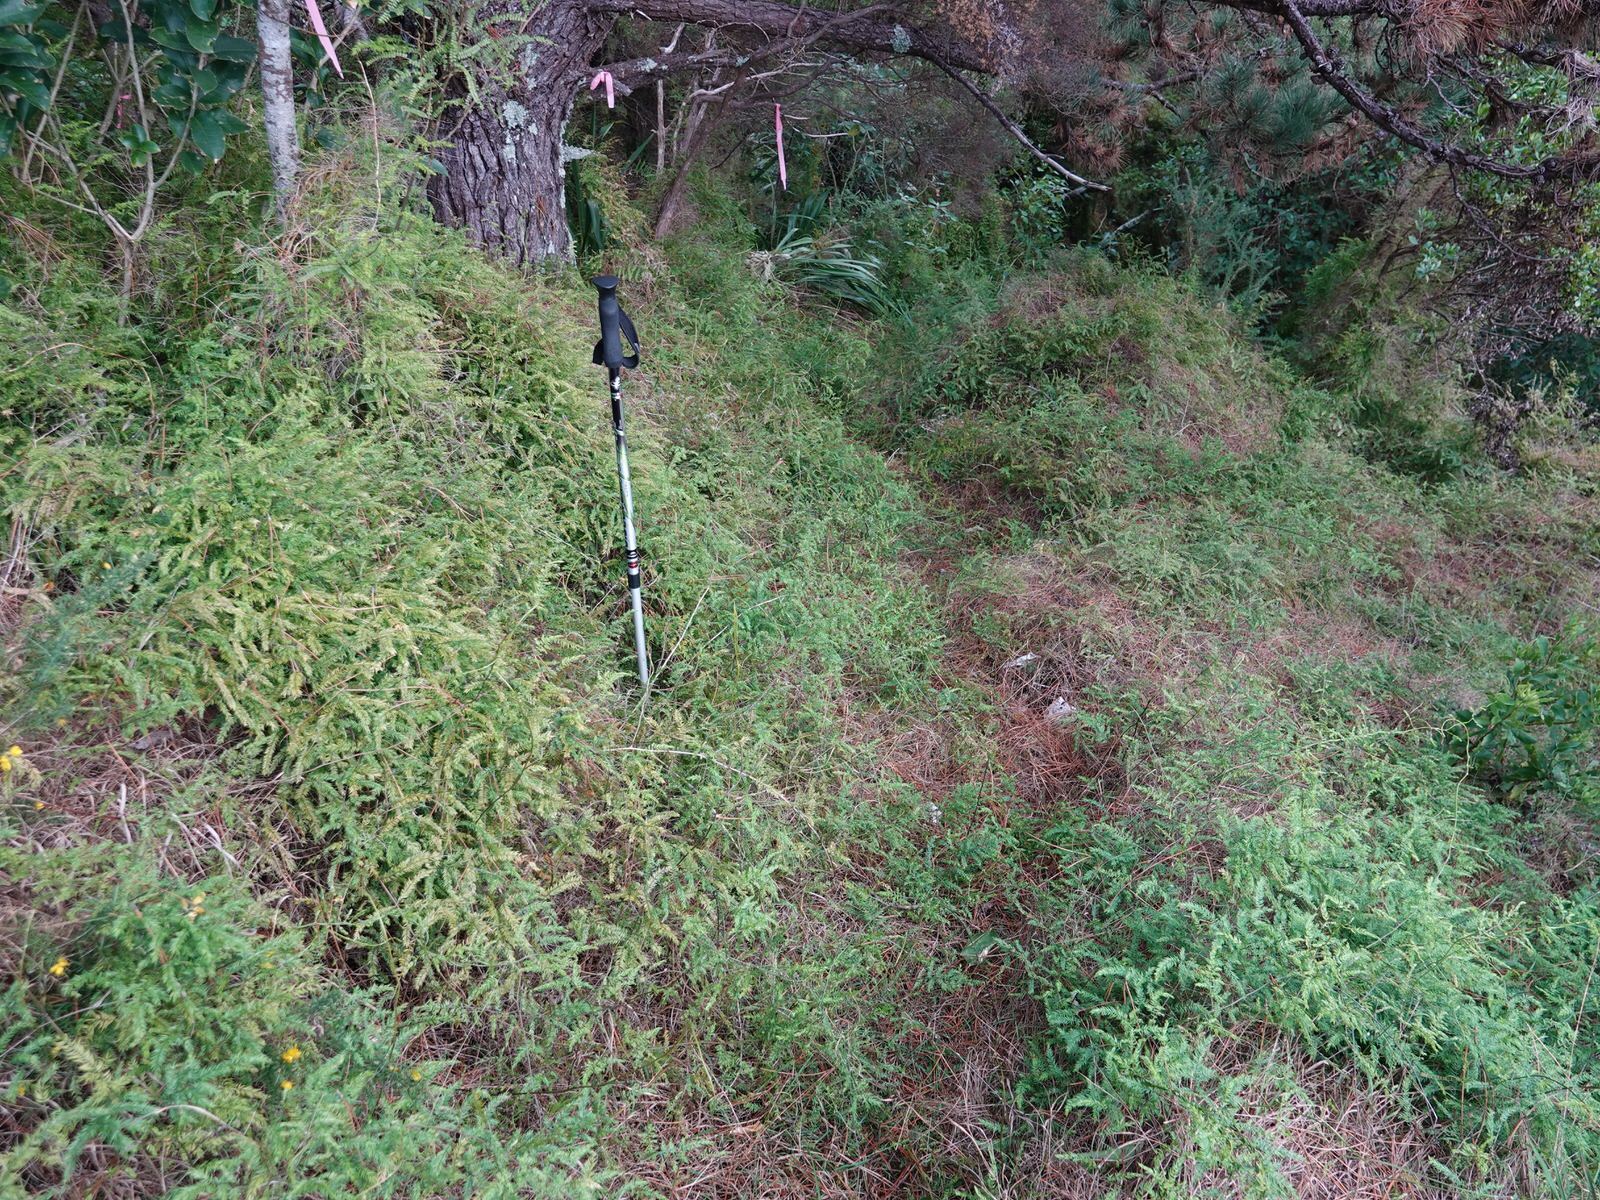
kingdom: Plantae
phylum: Tracheophyta
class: Liliopsida
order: Asparagales
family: Asparagaceae
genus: Asparagus
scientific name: Asparagus scandens
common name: Asparagus-fern
